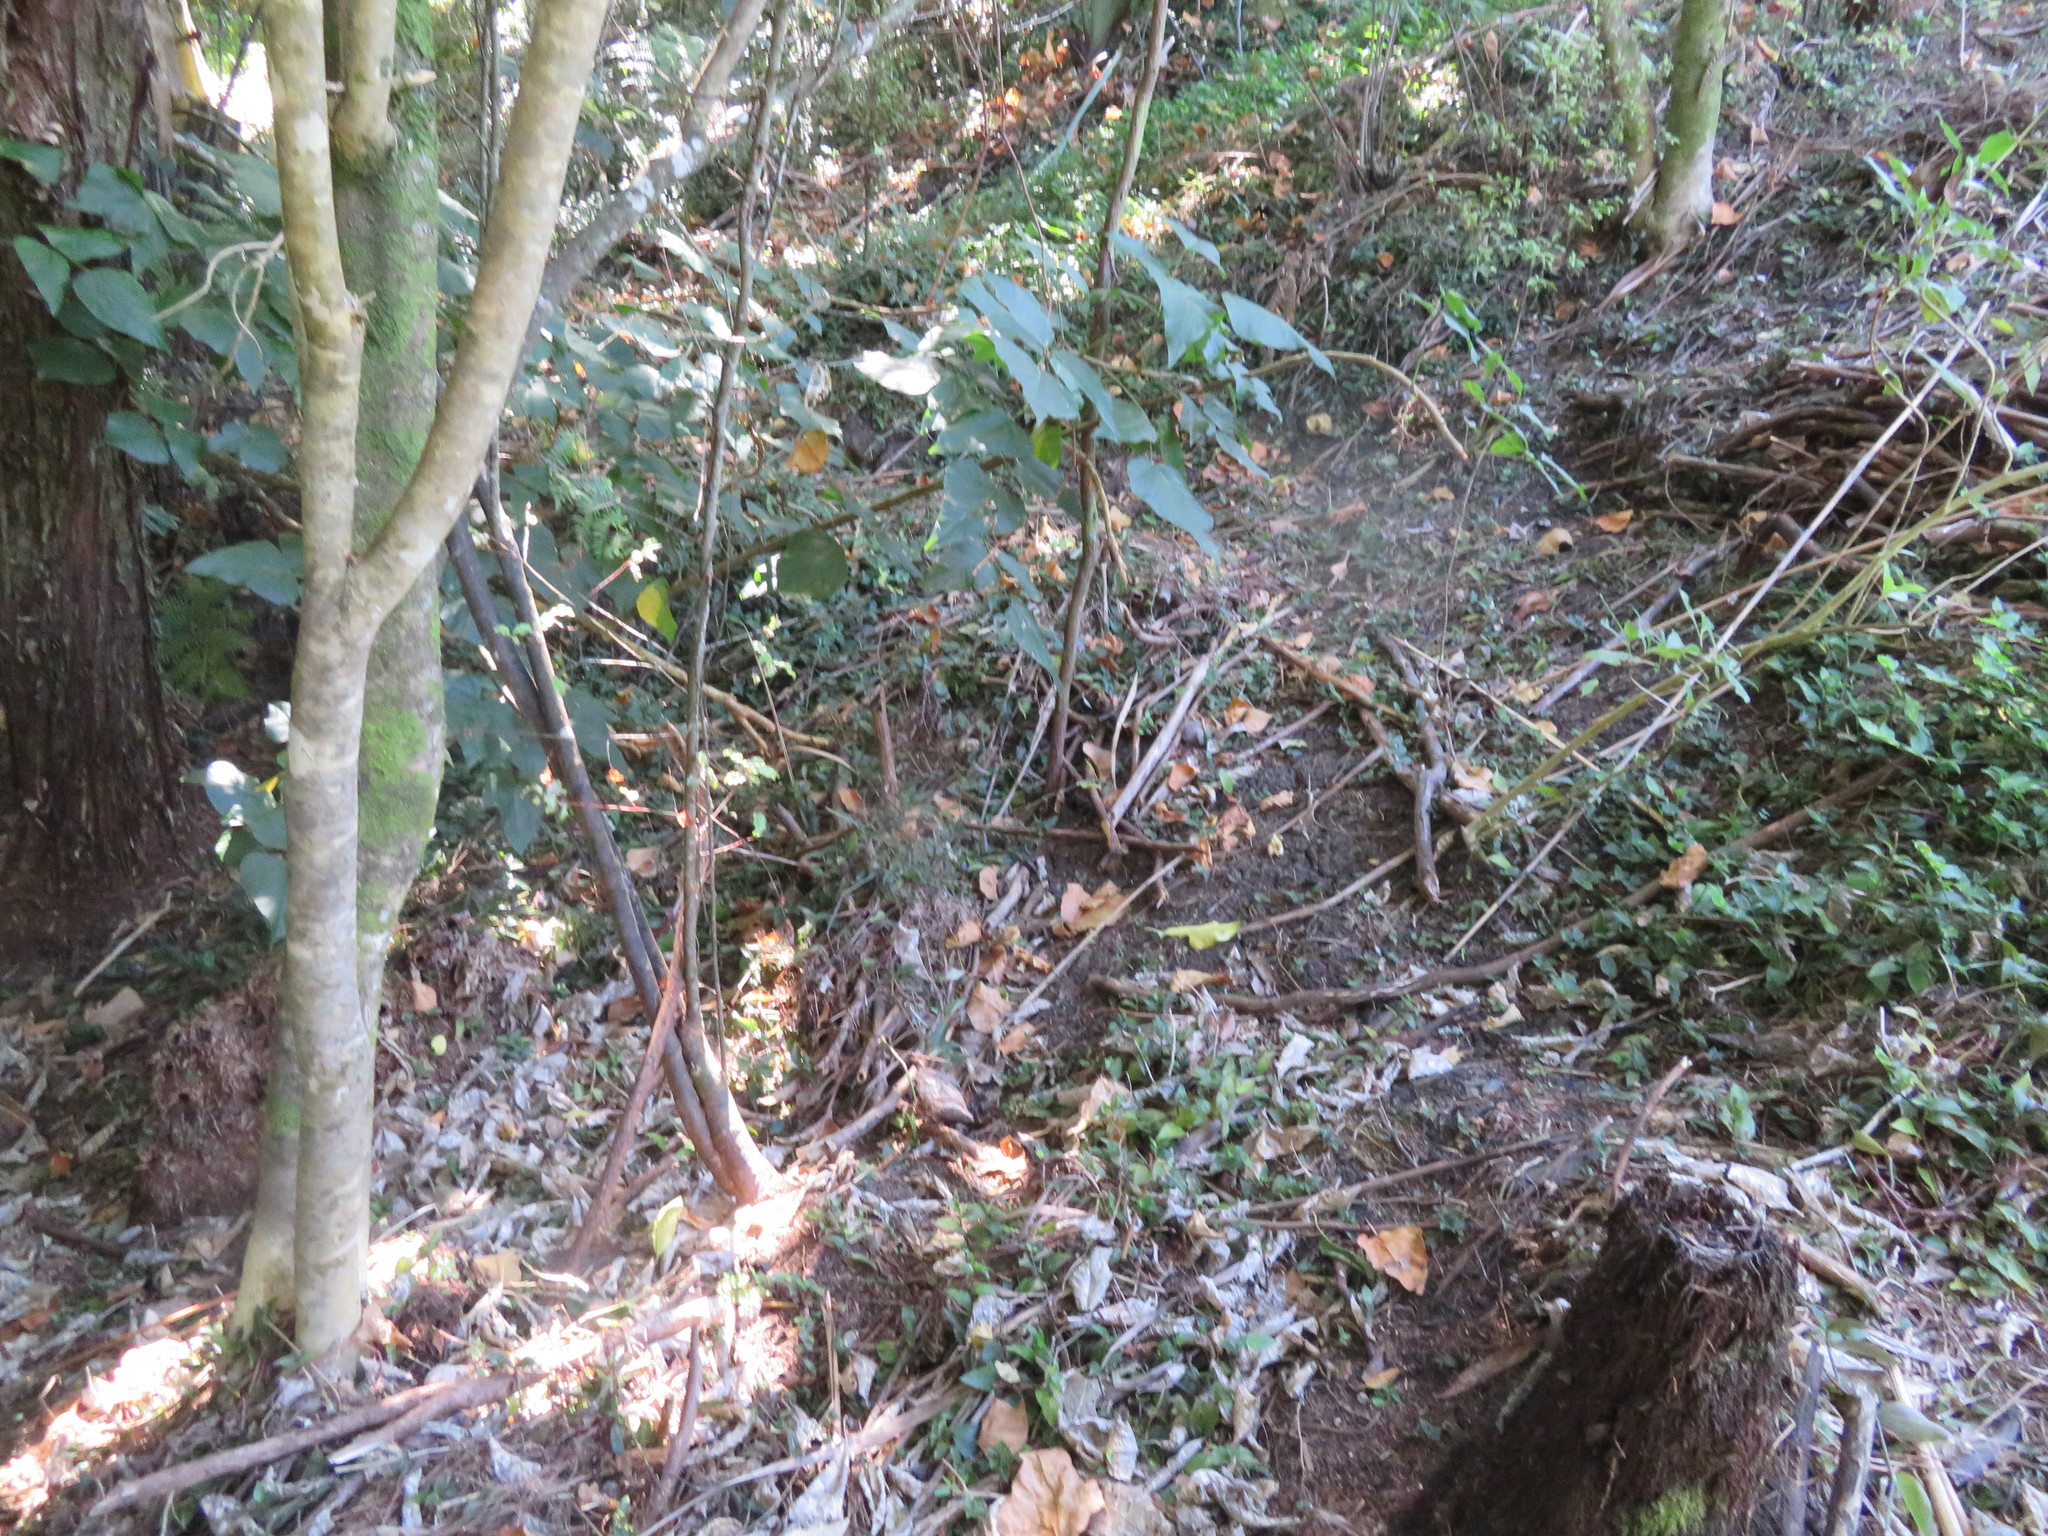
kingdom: Plantae
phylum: Tracheophyta
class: Liliopsida
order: Commelinales
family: Commelinaceae
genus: Tradescantia
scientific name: Tradescantia fluminensis
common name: Wandering-jew
